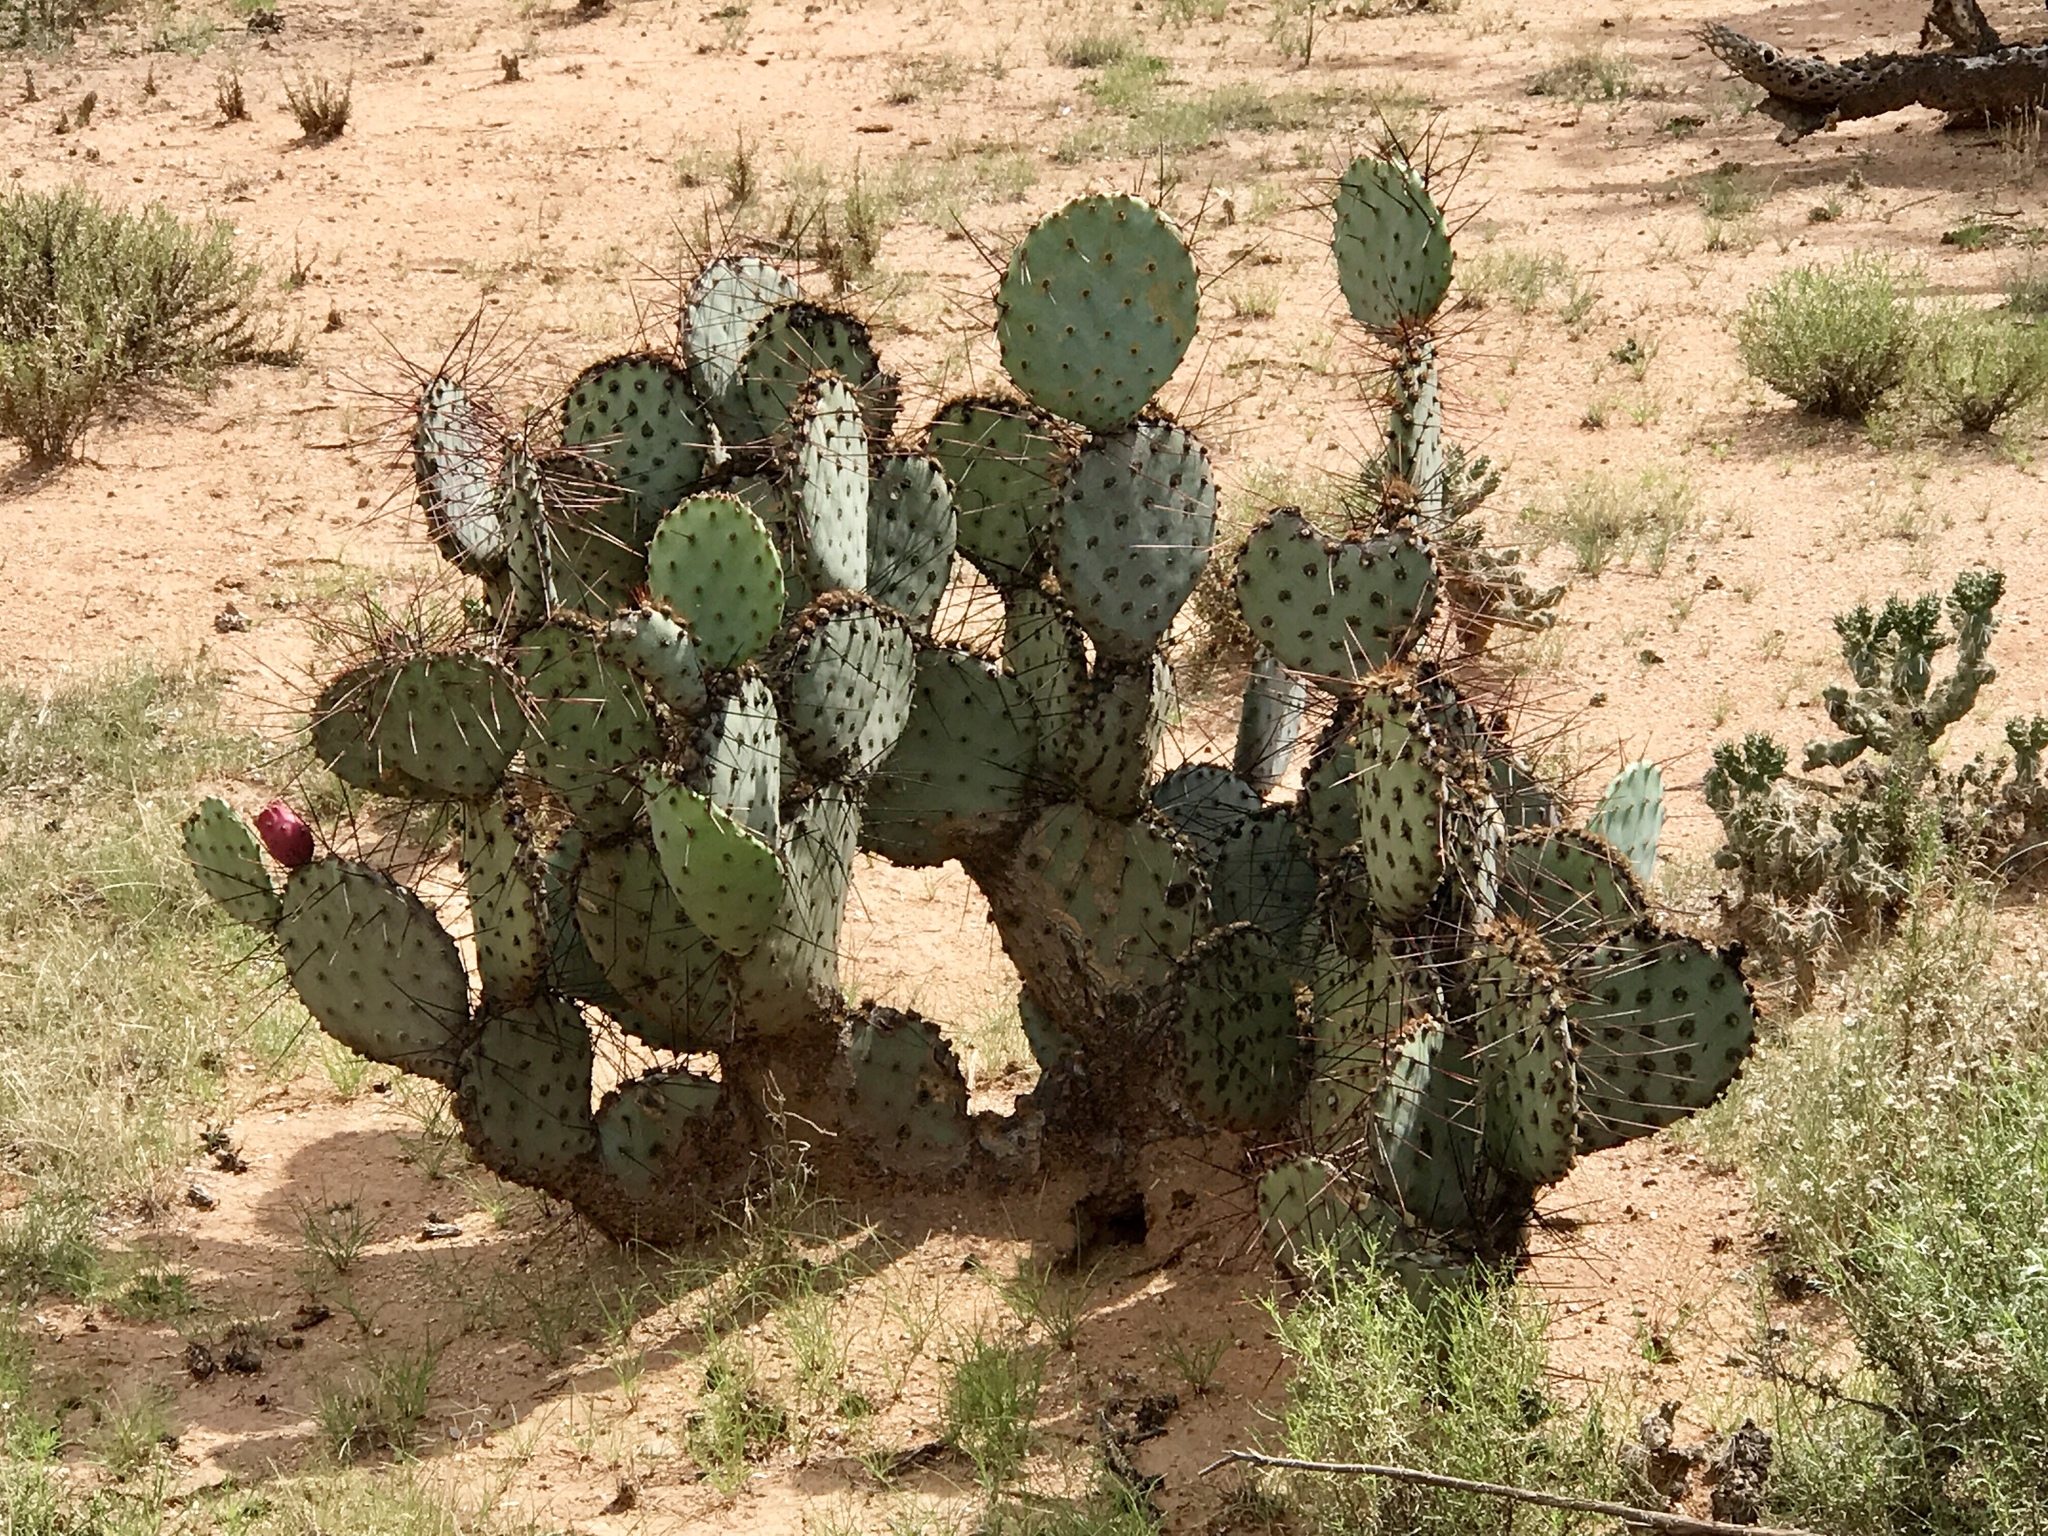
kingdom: Plantae
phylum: Tracheophyta
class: Magnoliopsida
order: Caryophyllales
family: Cactaceae
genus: Opuntia
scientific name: Opuntia phaeacantha
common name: New mexico prickly-pear
